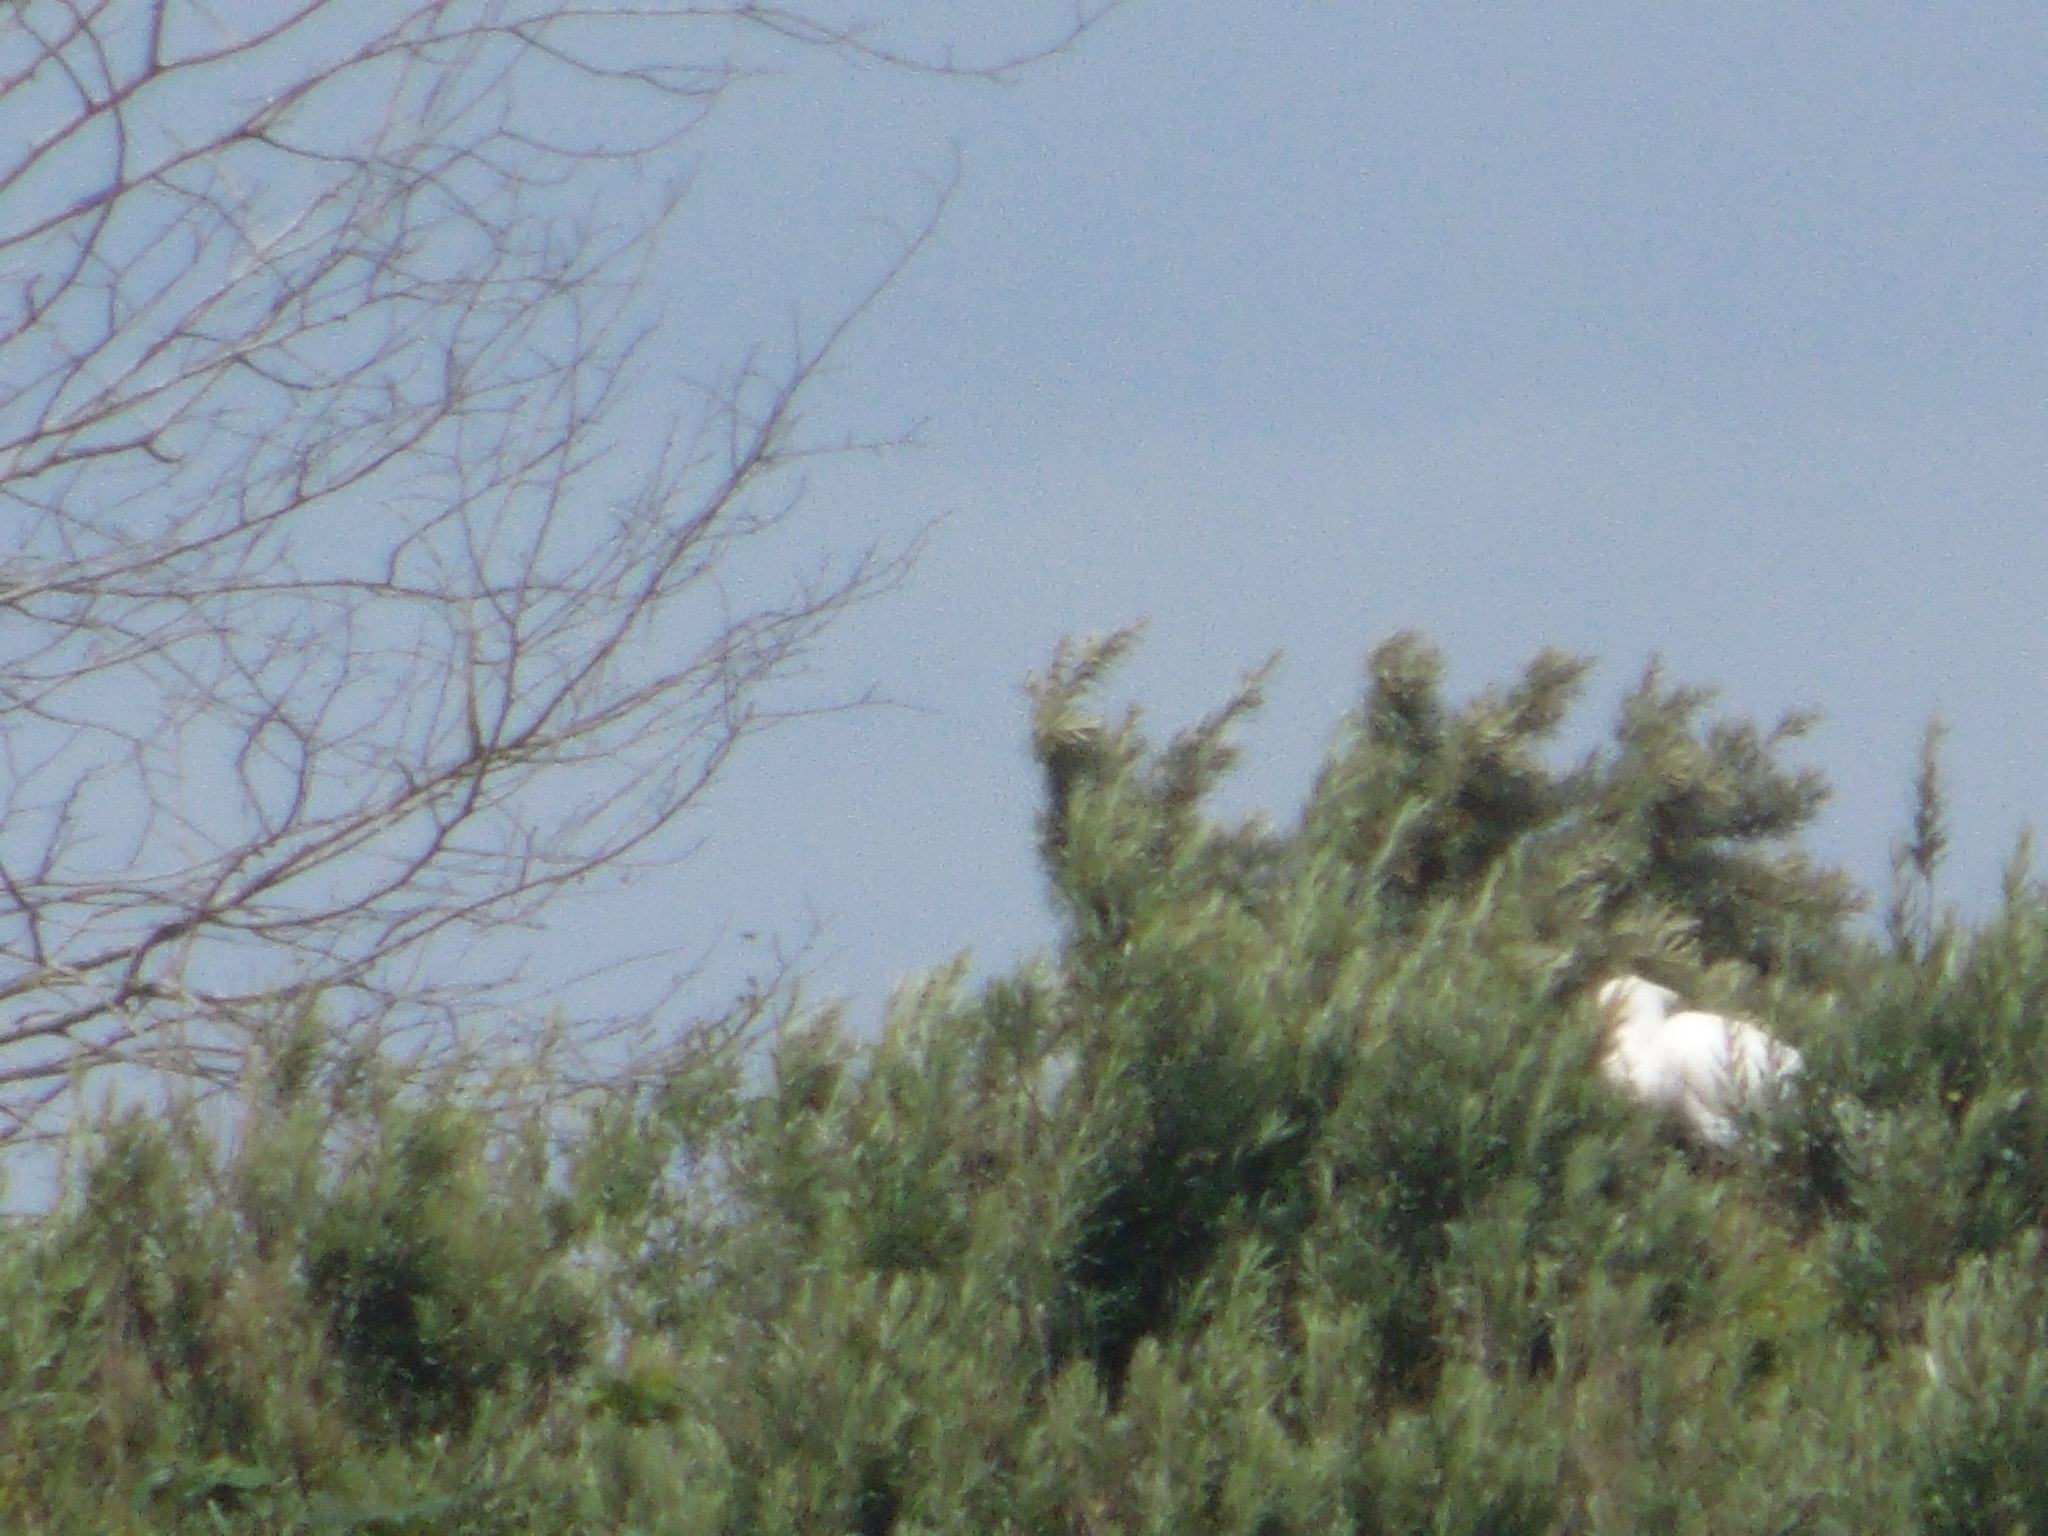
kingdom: Animalia
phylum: Chordata
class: Aves
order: Pelecaniformes
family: Threskiornithidae
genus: Platalea
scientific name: Platalea leucorodia
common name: Eurasian spoonbill
